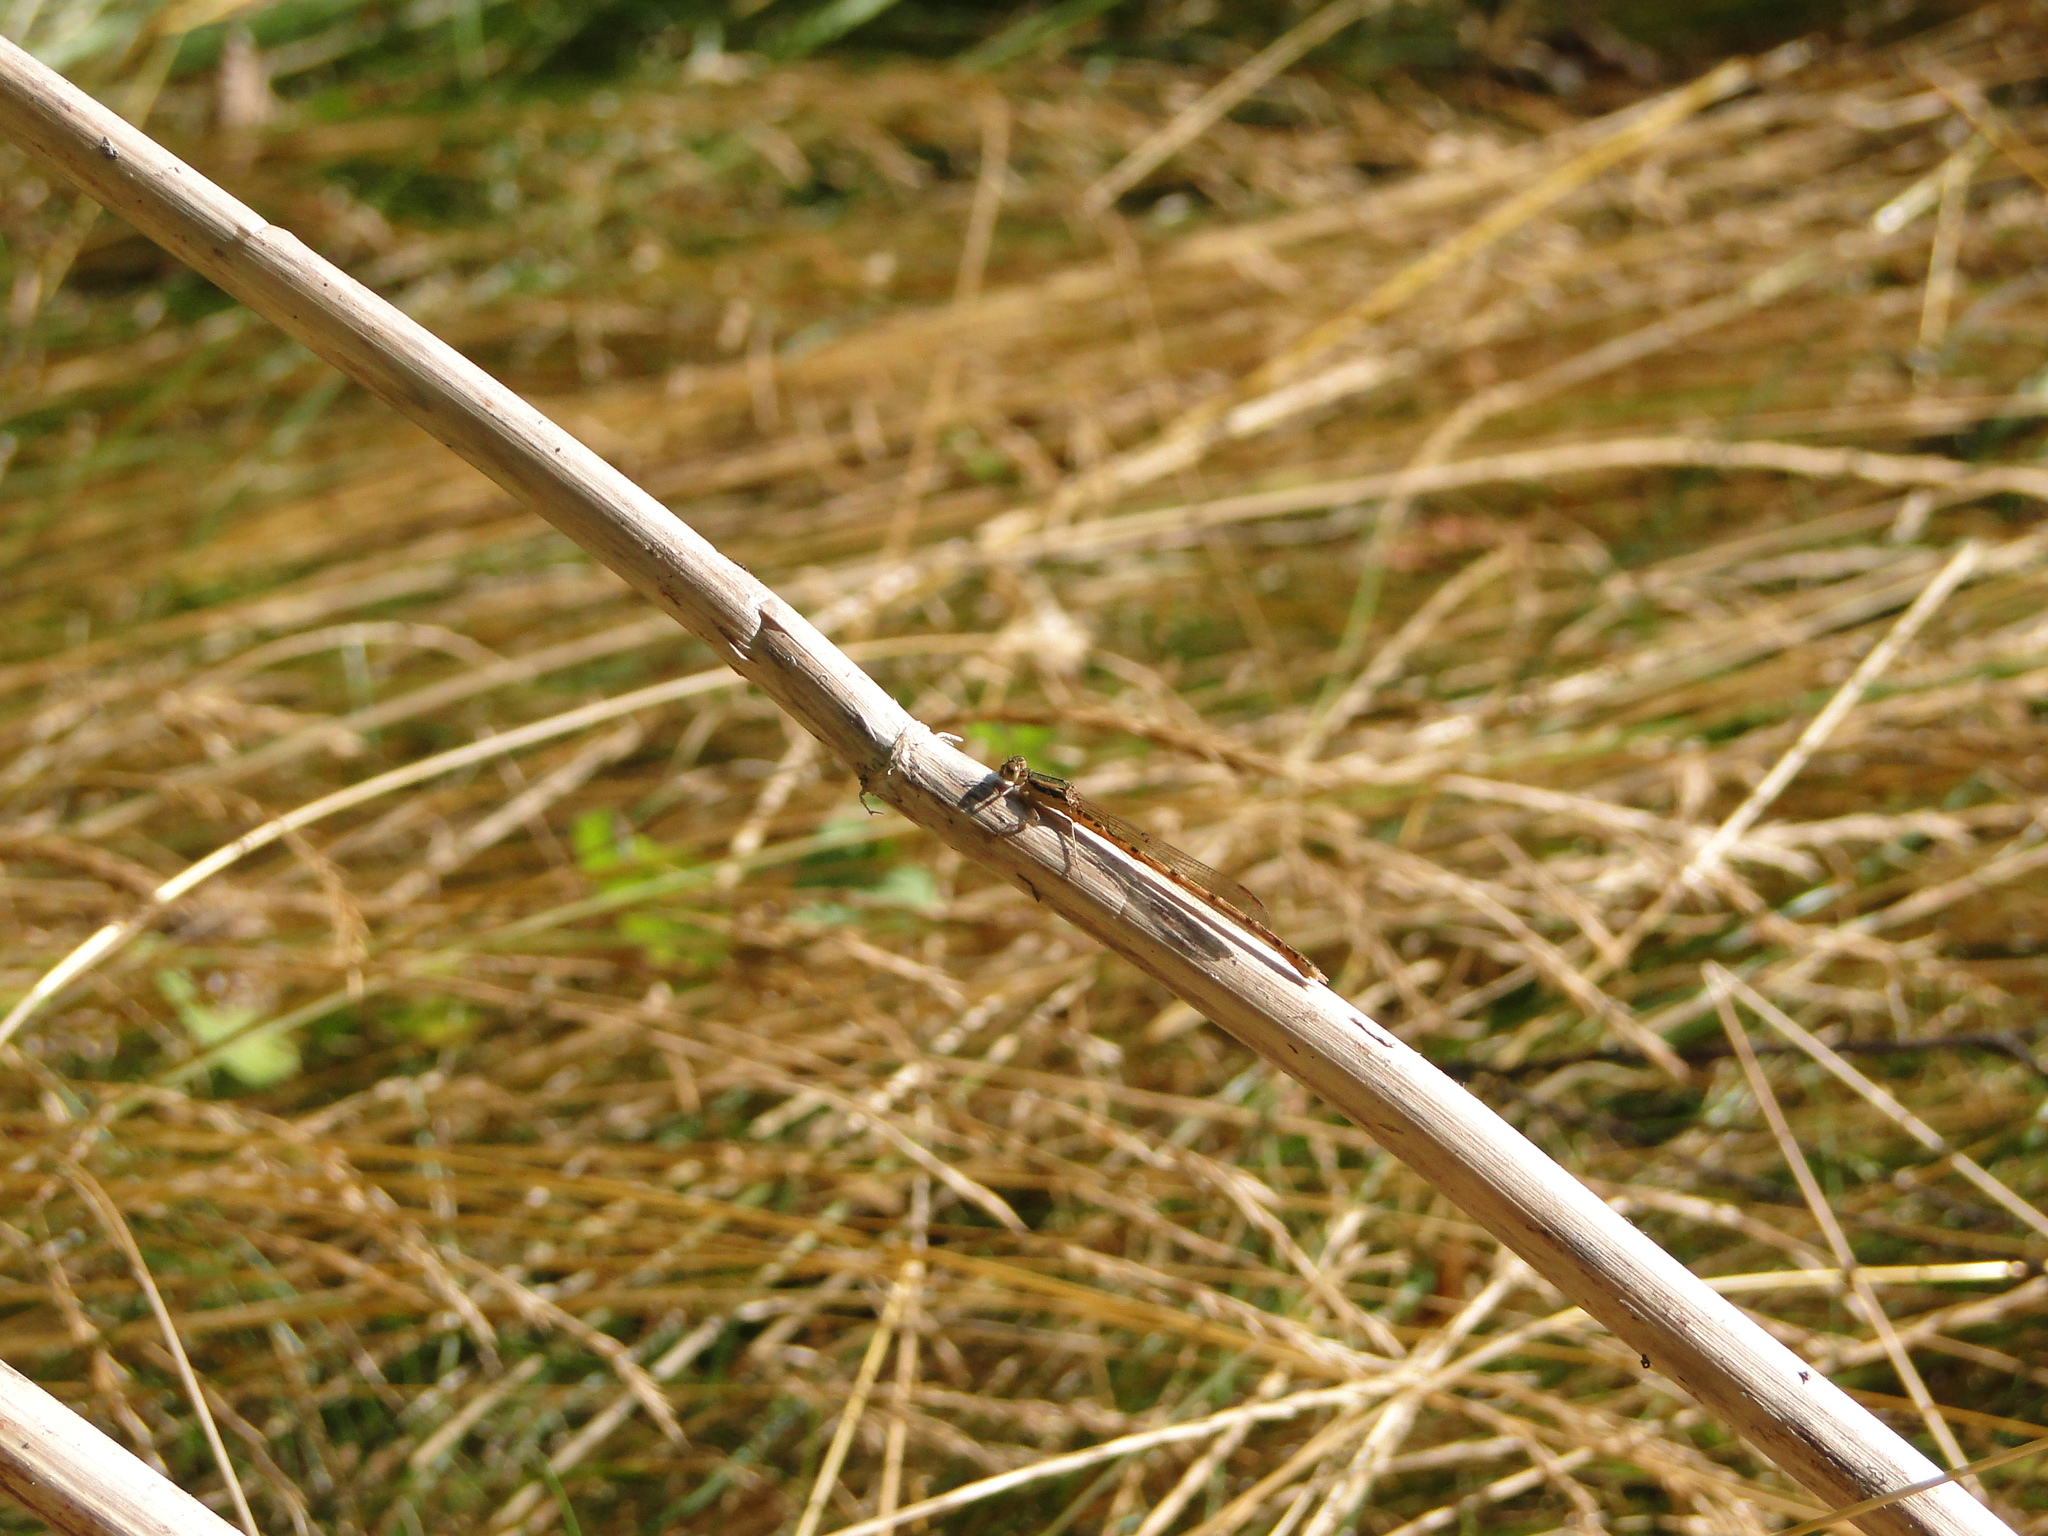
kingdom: Animalia
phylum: Arthropoda
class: Insecta
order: Odonata
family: Lestidae
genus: Sympecma
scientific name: Sympecma fusca
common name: Common winter damsel
